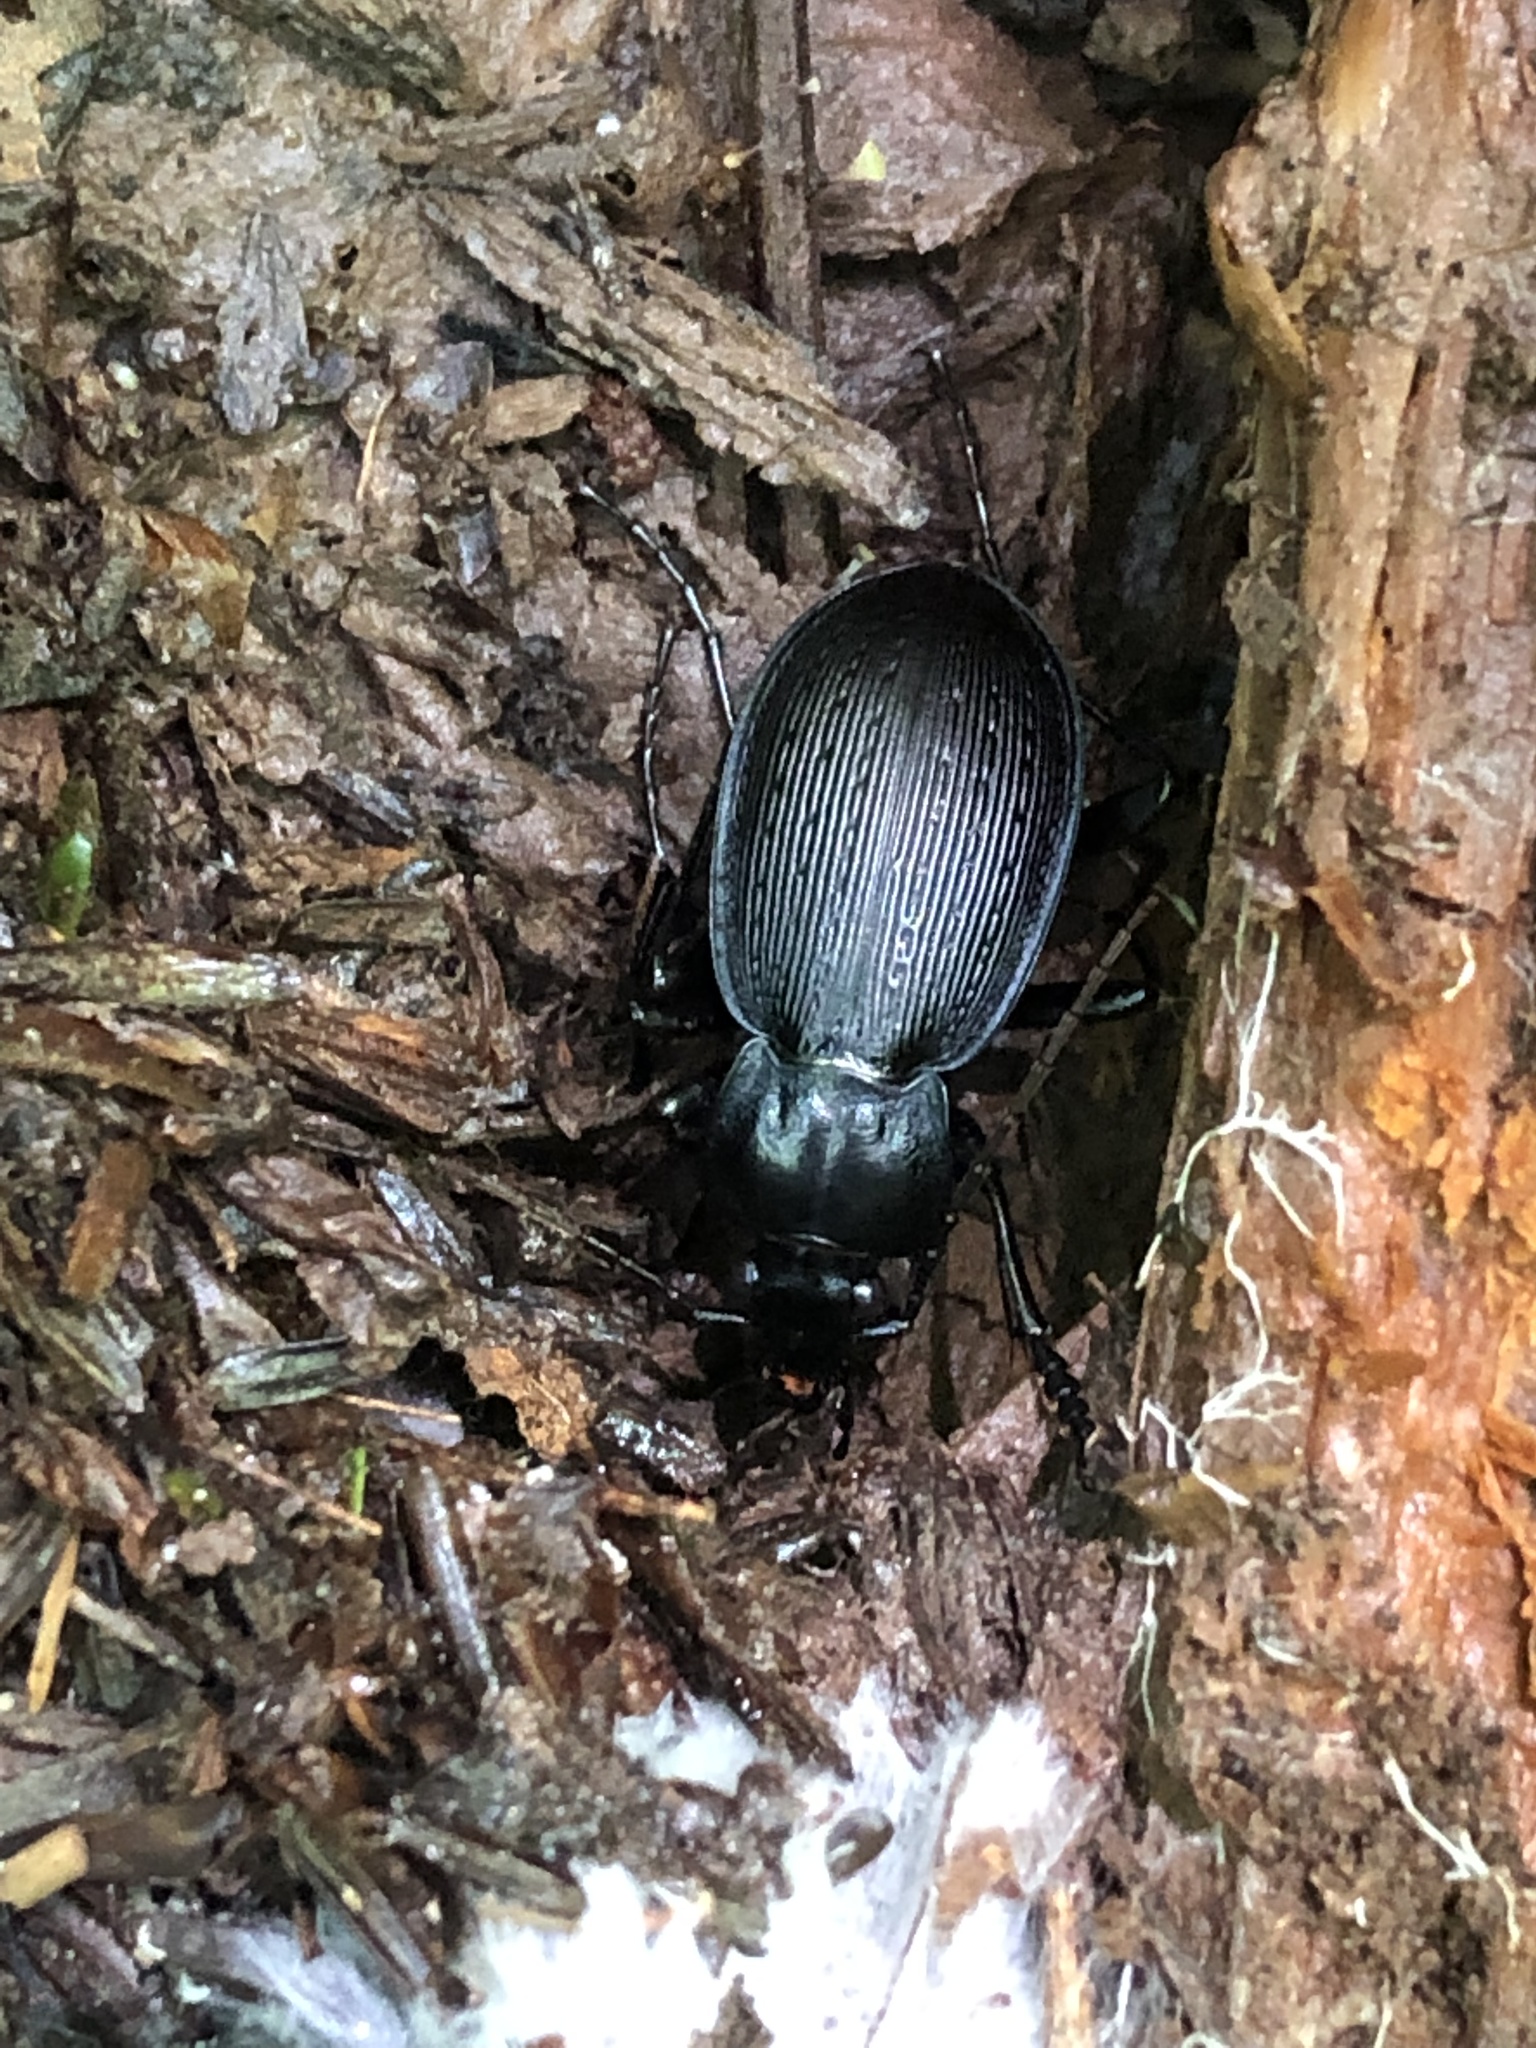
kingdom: Animalia
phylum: Arthropoda
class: Insecta
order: Coleoptera
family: Carabidae
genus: Carabus
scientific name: Carabus goryi
